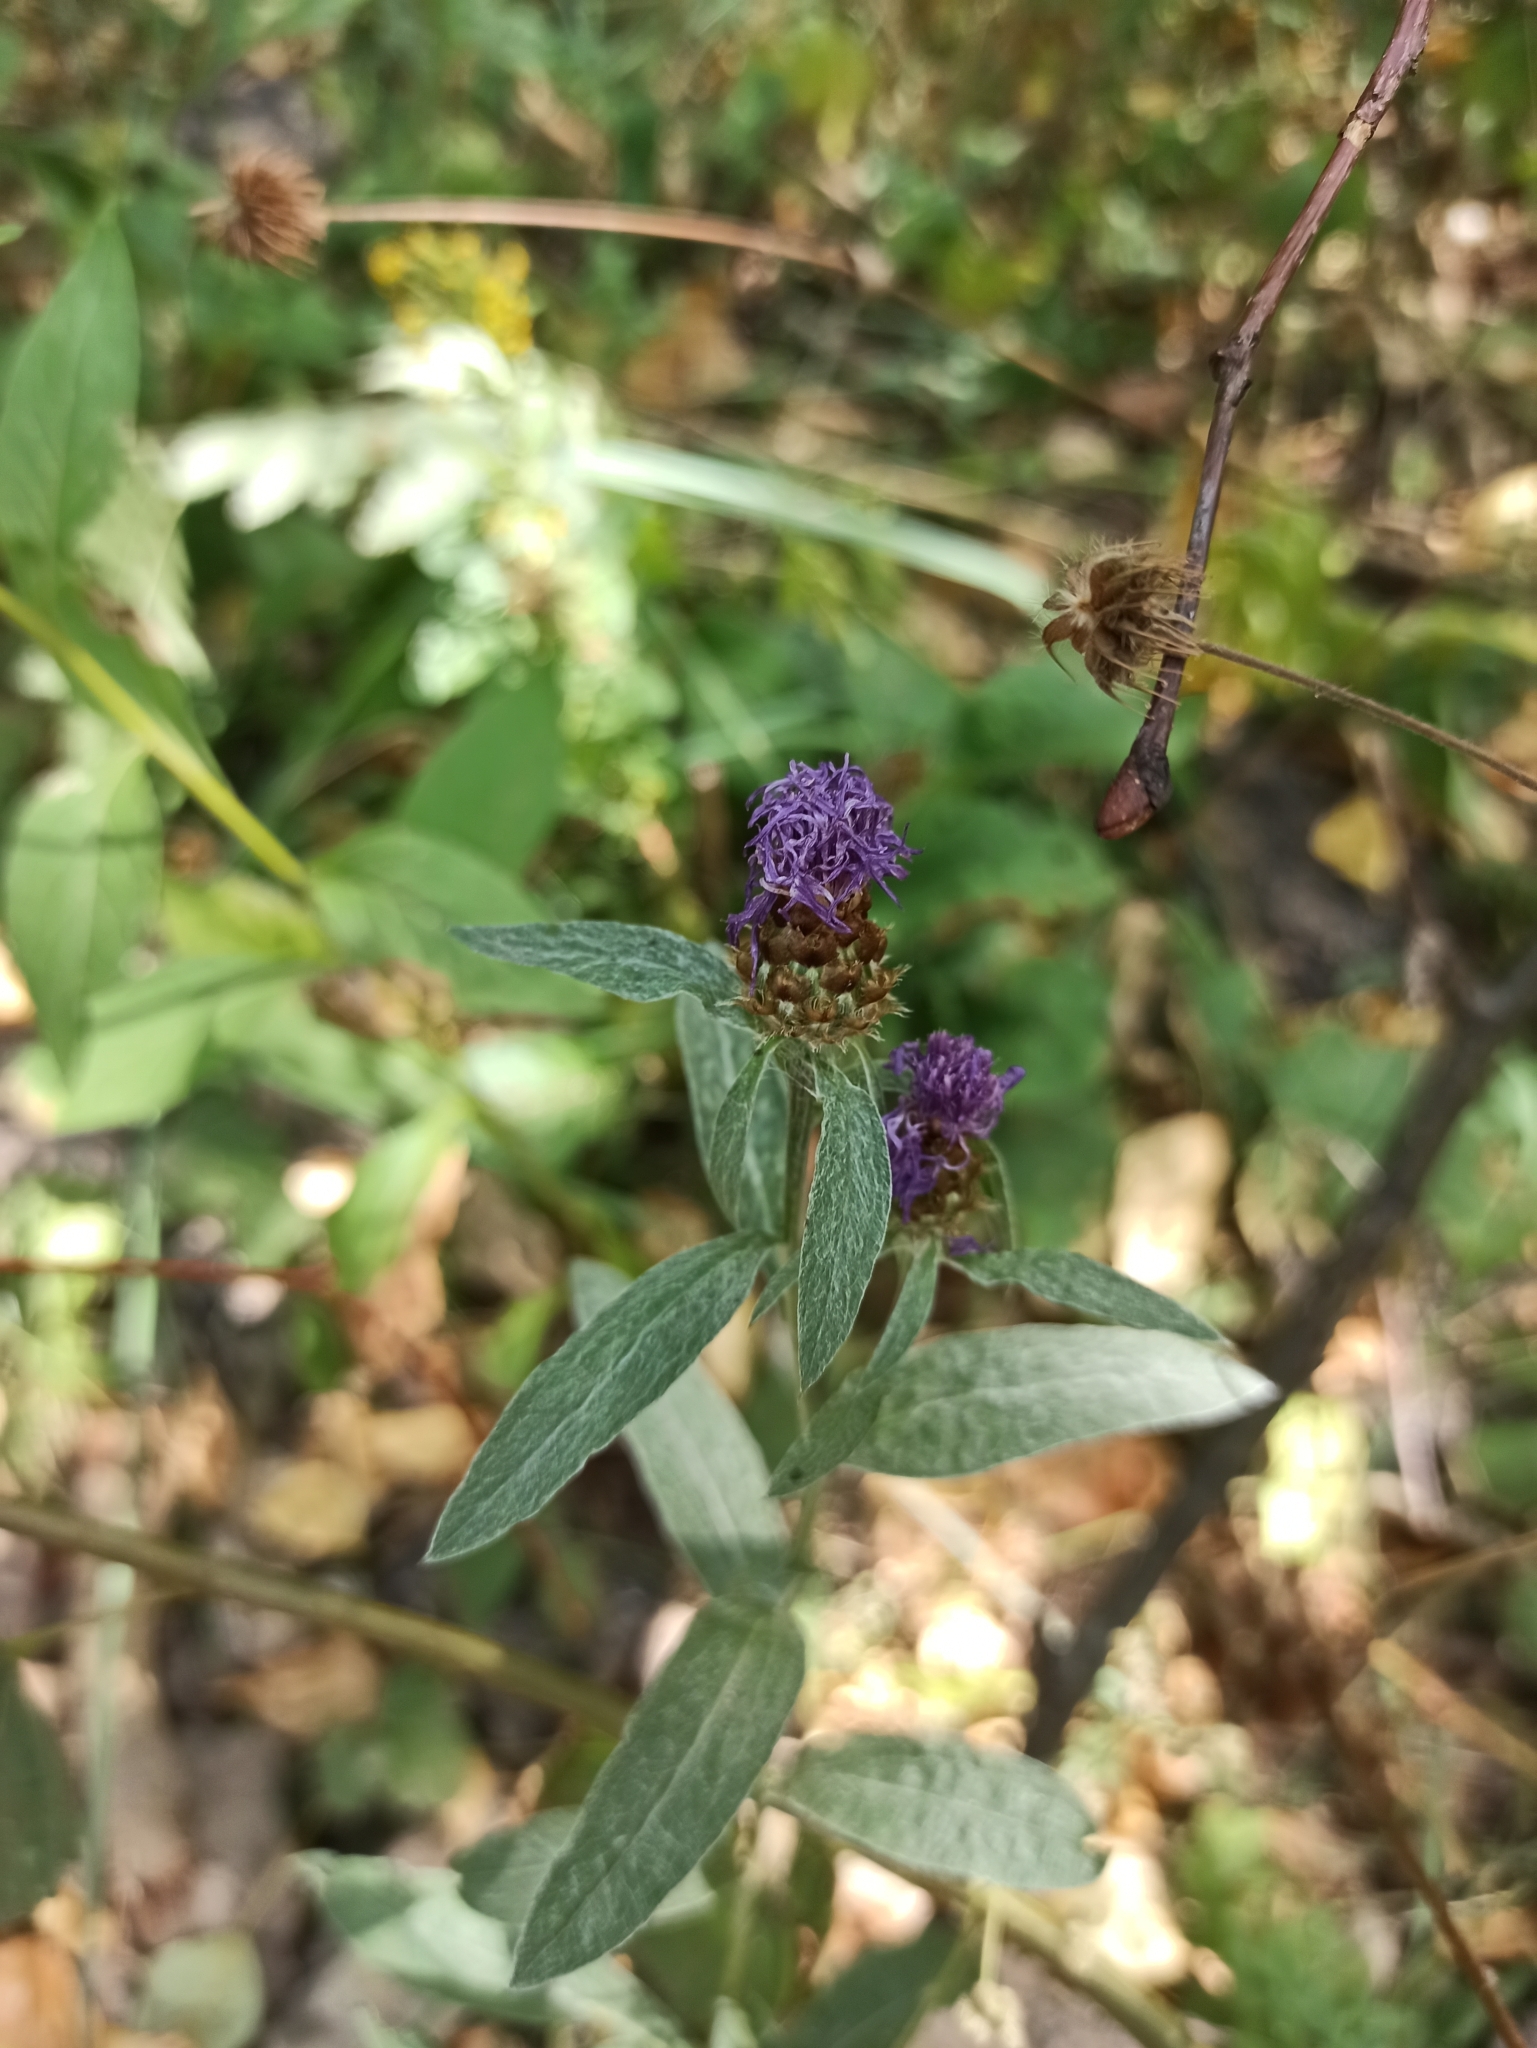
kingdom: Plantae
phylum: Tracheophyta
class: Magnoliopsida
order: Asterales
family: Asteraceae
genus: Centaurea
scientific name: Centaurea jacea
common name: Brown knapweed
